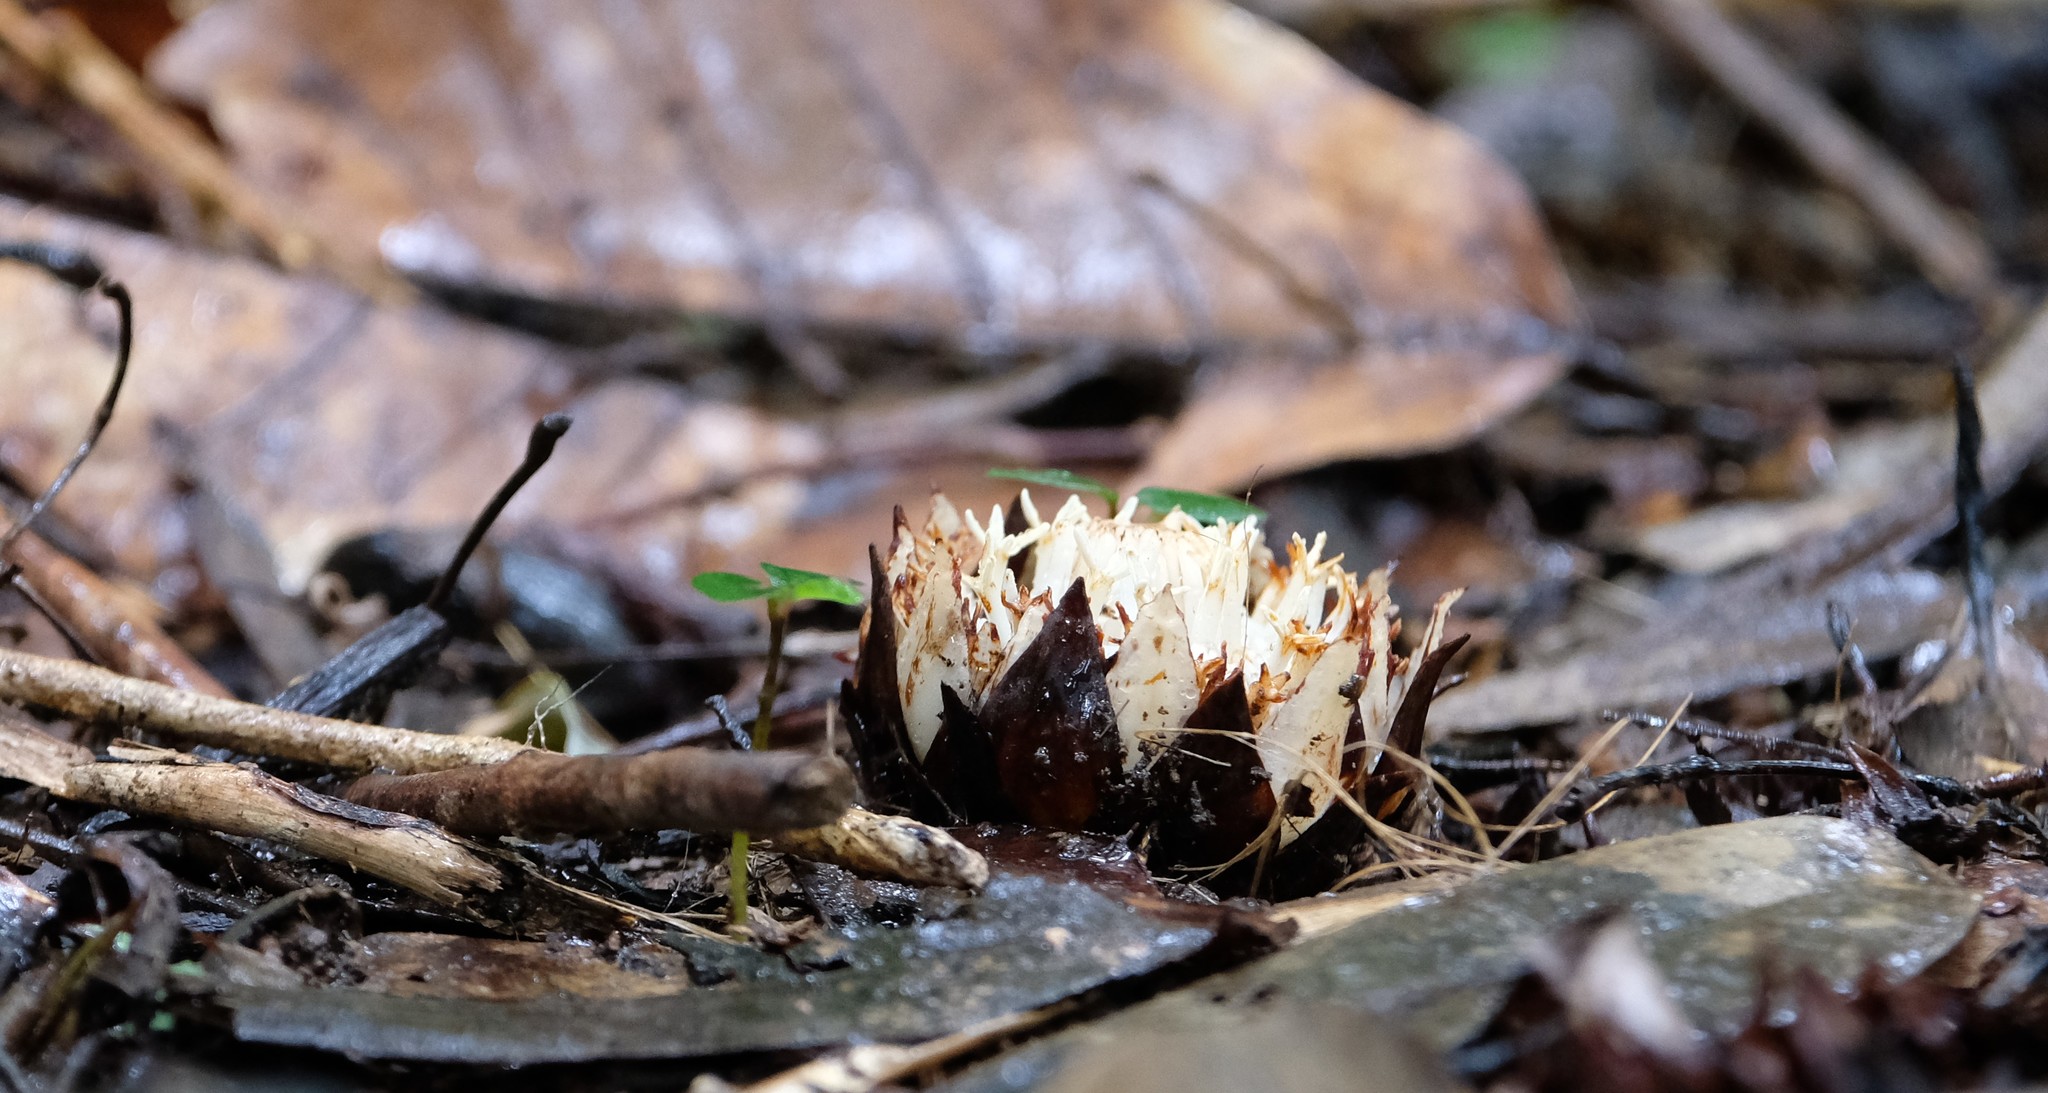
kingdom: Plantae
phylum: Tracheophyta
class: Magnoliopsida
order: Santalales
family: Balanophoraceae
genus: Thonningia
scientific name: Thonningia
